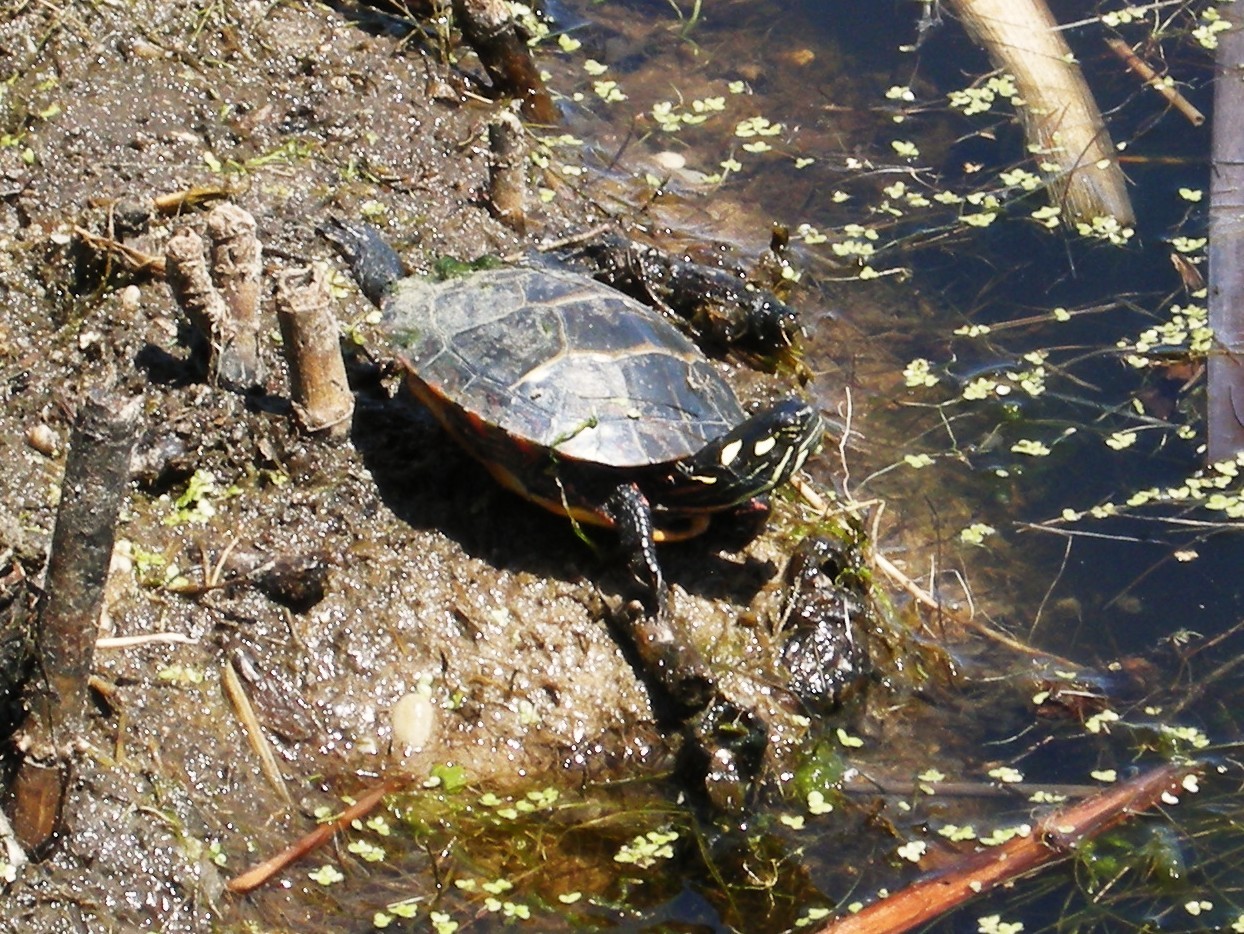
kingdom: Animalia
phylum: Chordata
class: Testudines
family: Emydidae
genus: Chrysemys
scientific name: Chrysemys picta
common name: Painted turtle
